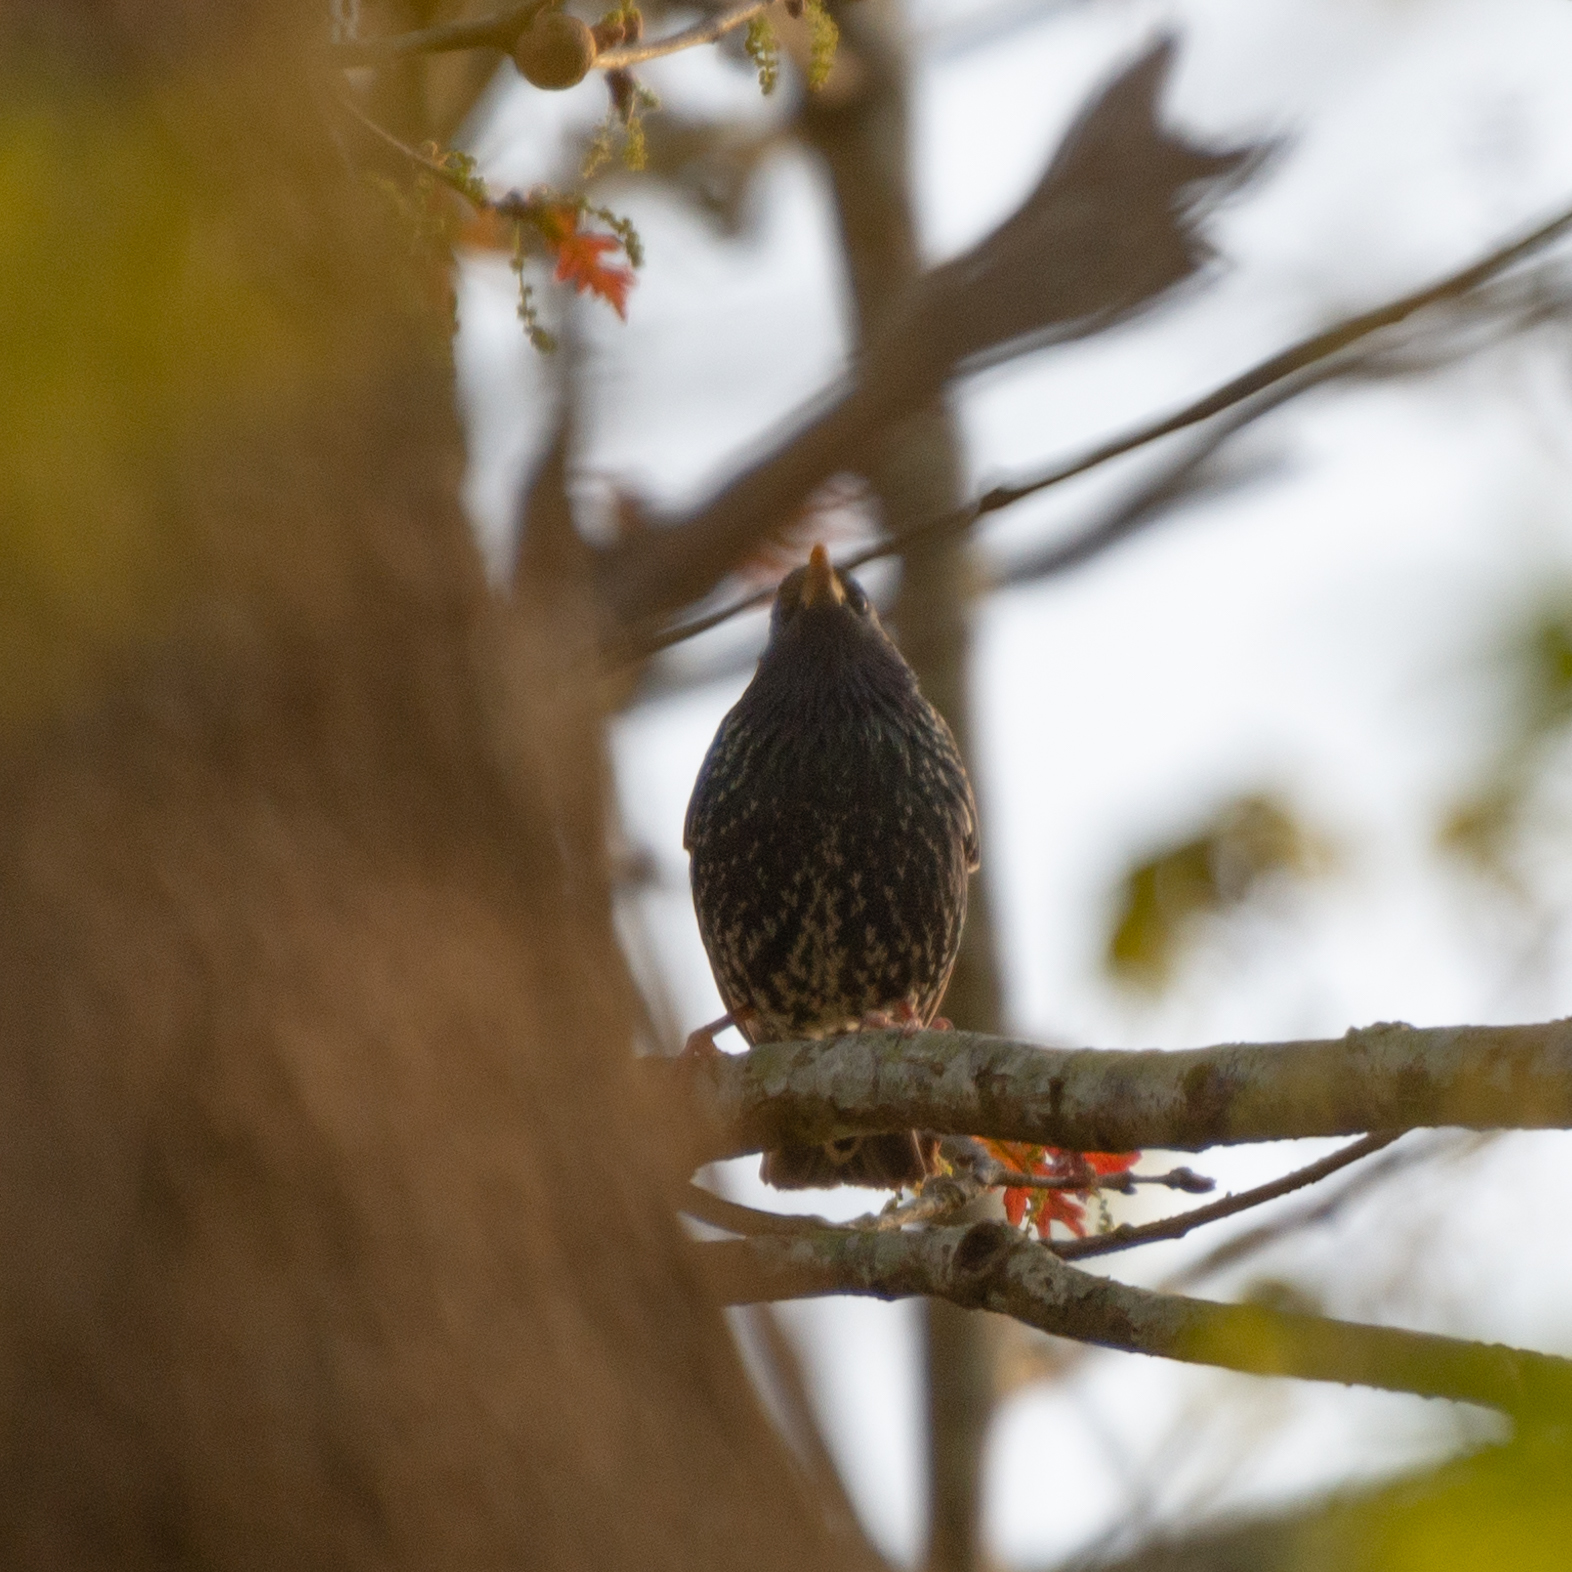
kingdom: Animalia
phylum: Chordata
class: Aves
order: Passeriformes
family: Sturnidae
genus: Sturnus
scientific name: Sturnus vulgaris
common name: Common starling
